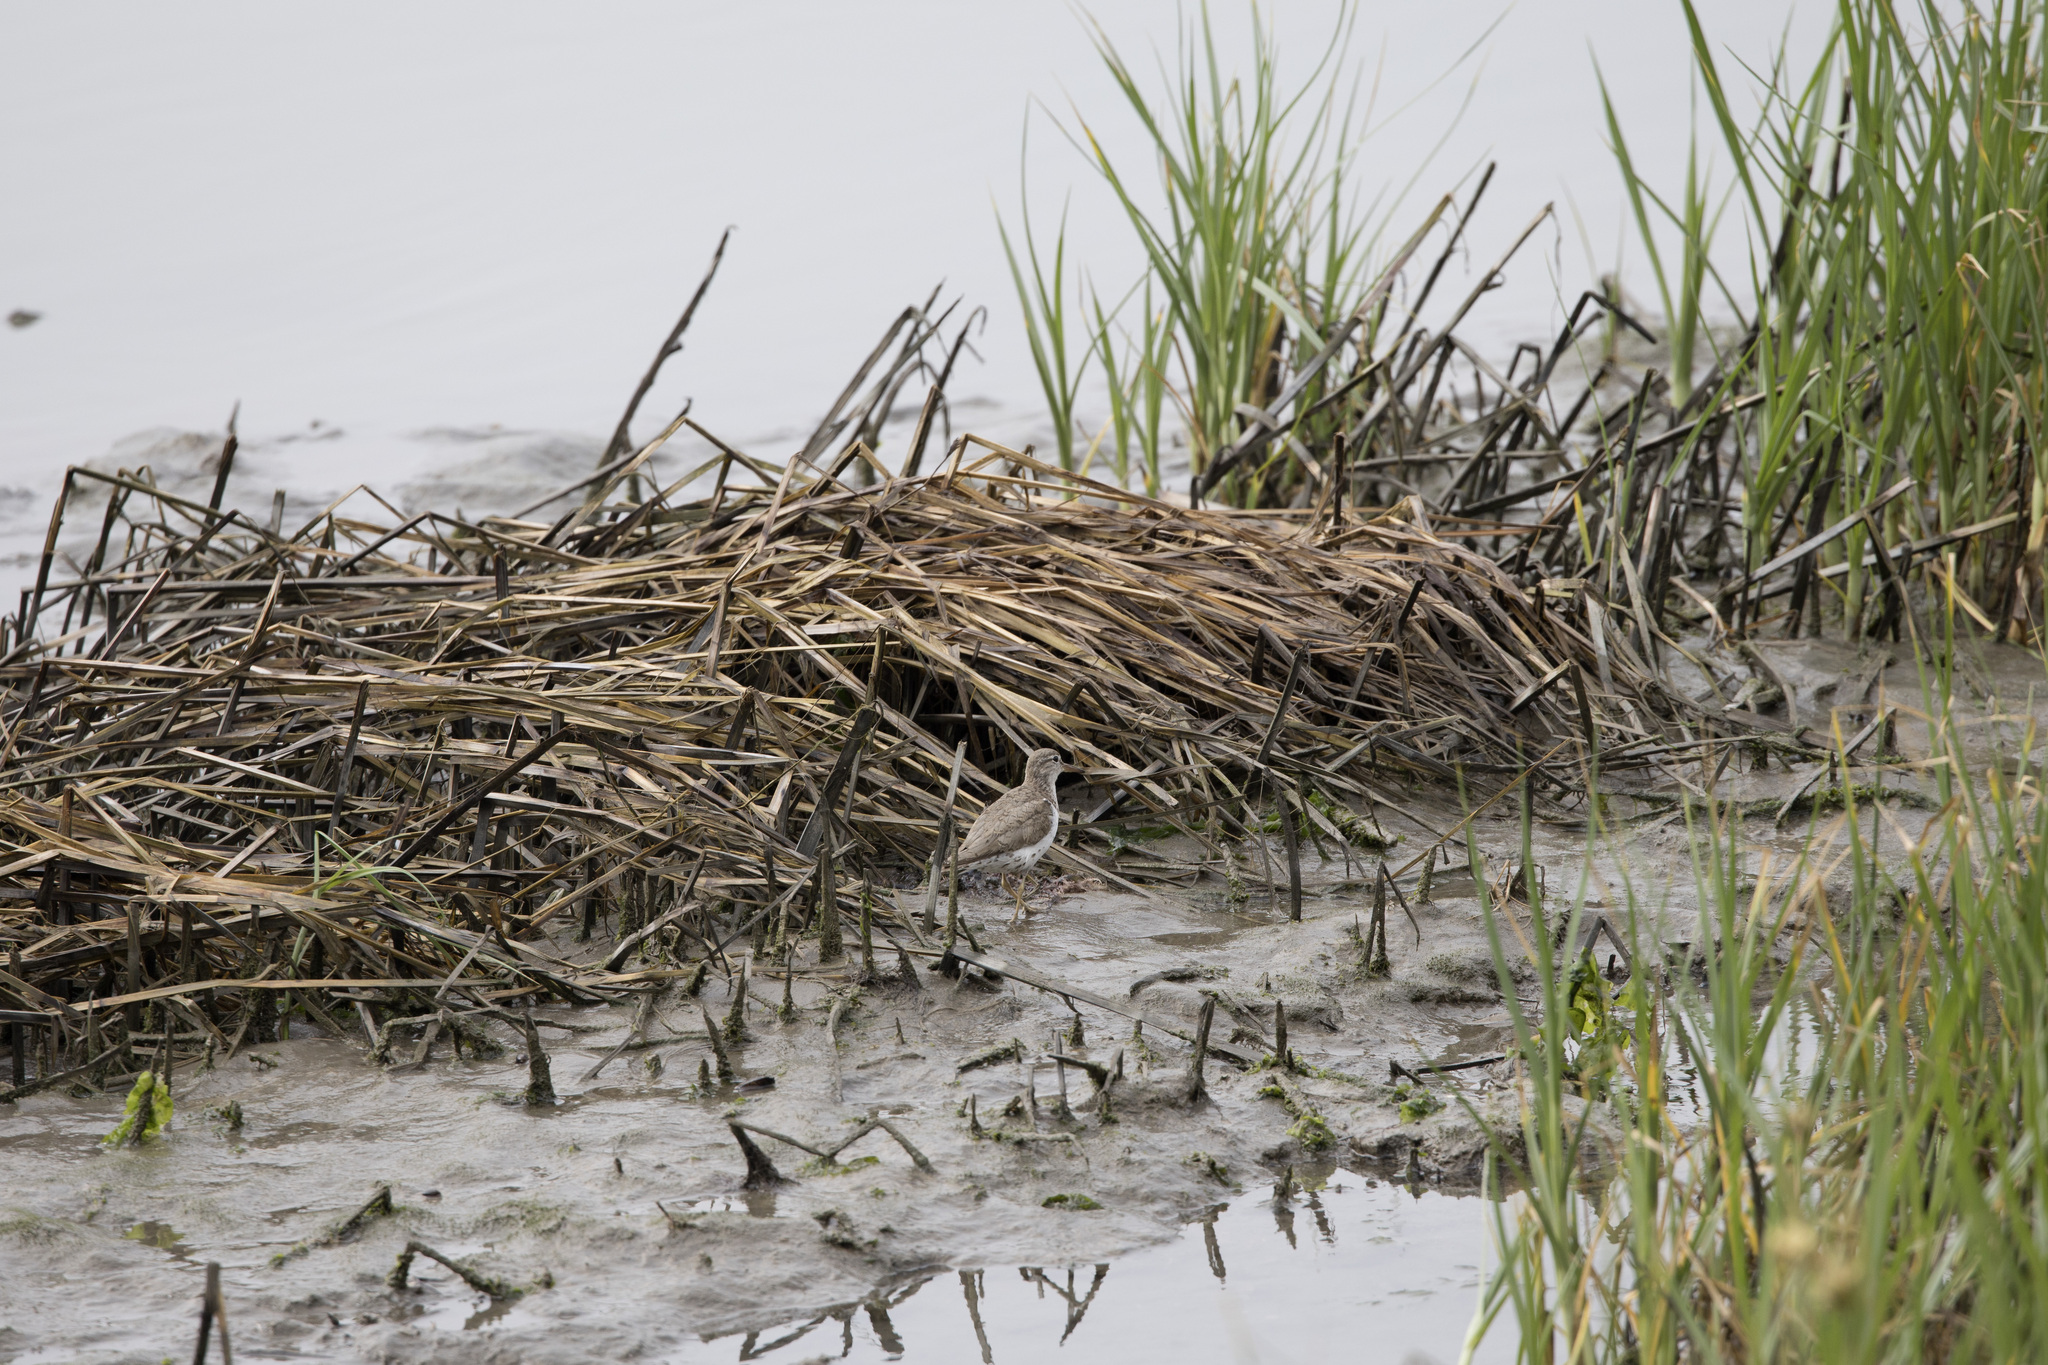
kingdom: Animalia
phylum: Chordata
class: Aves
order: Charadriiformes
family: Scolopacidae
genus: Actitis
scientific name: Actitis macularius
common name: Spotted sandpiper
